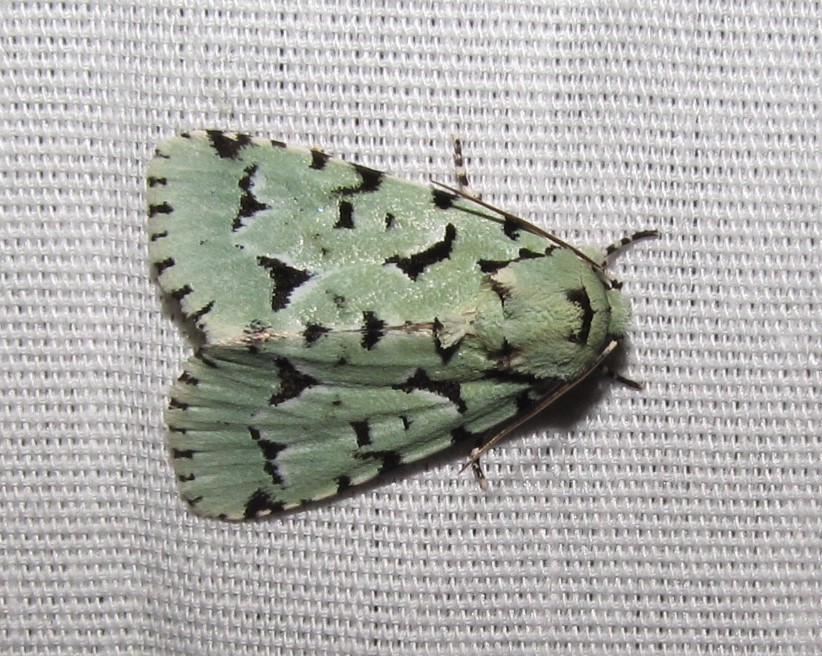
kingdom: Animalia
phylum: Arthropoda
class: Insecta
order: Lepidoptera
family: Noctuidae
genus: Acronicta
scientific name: Acronicta fallax
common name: Green marvel
